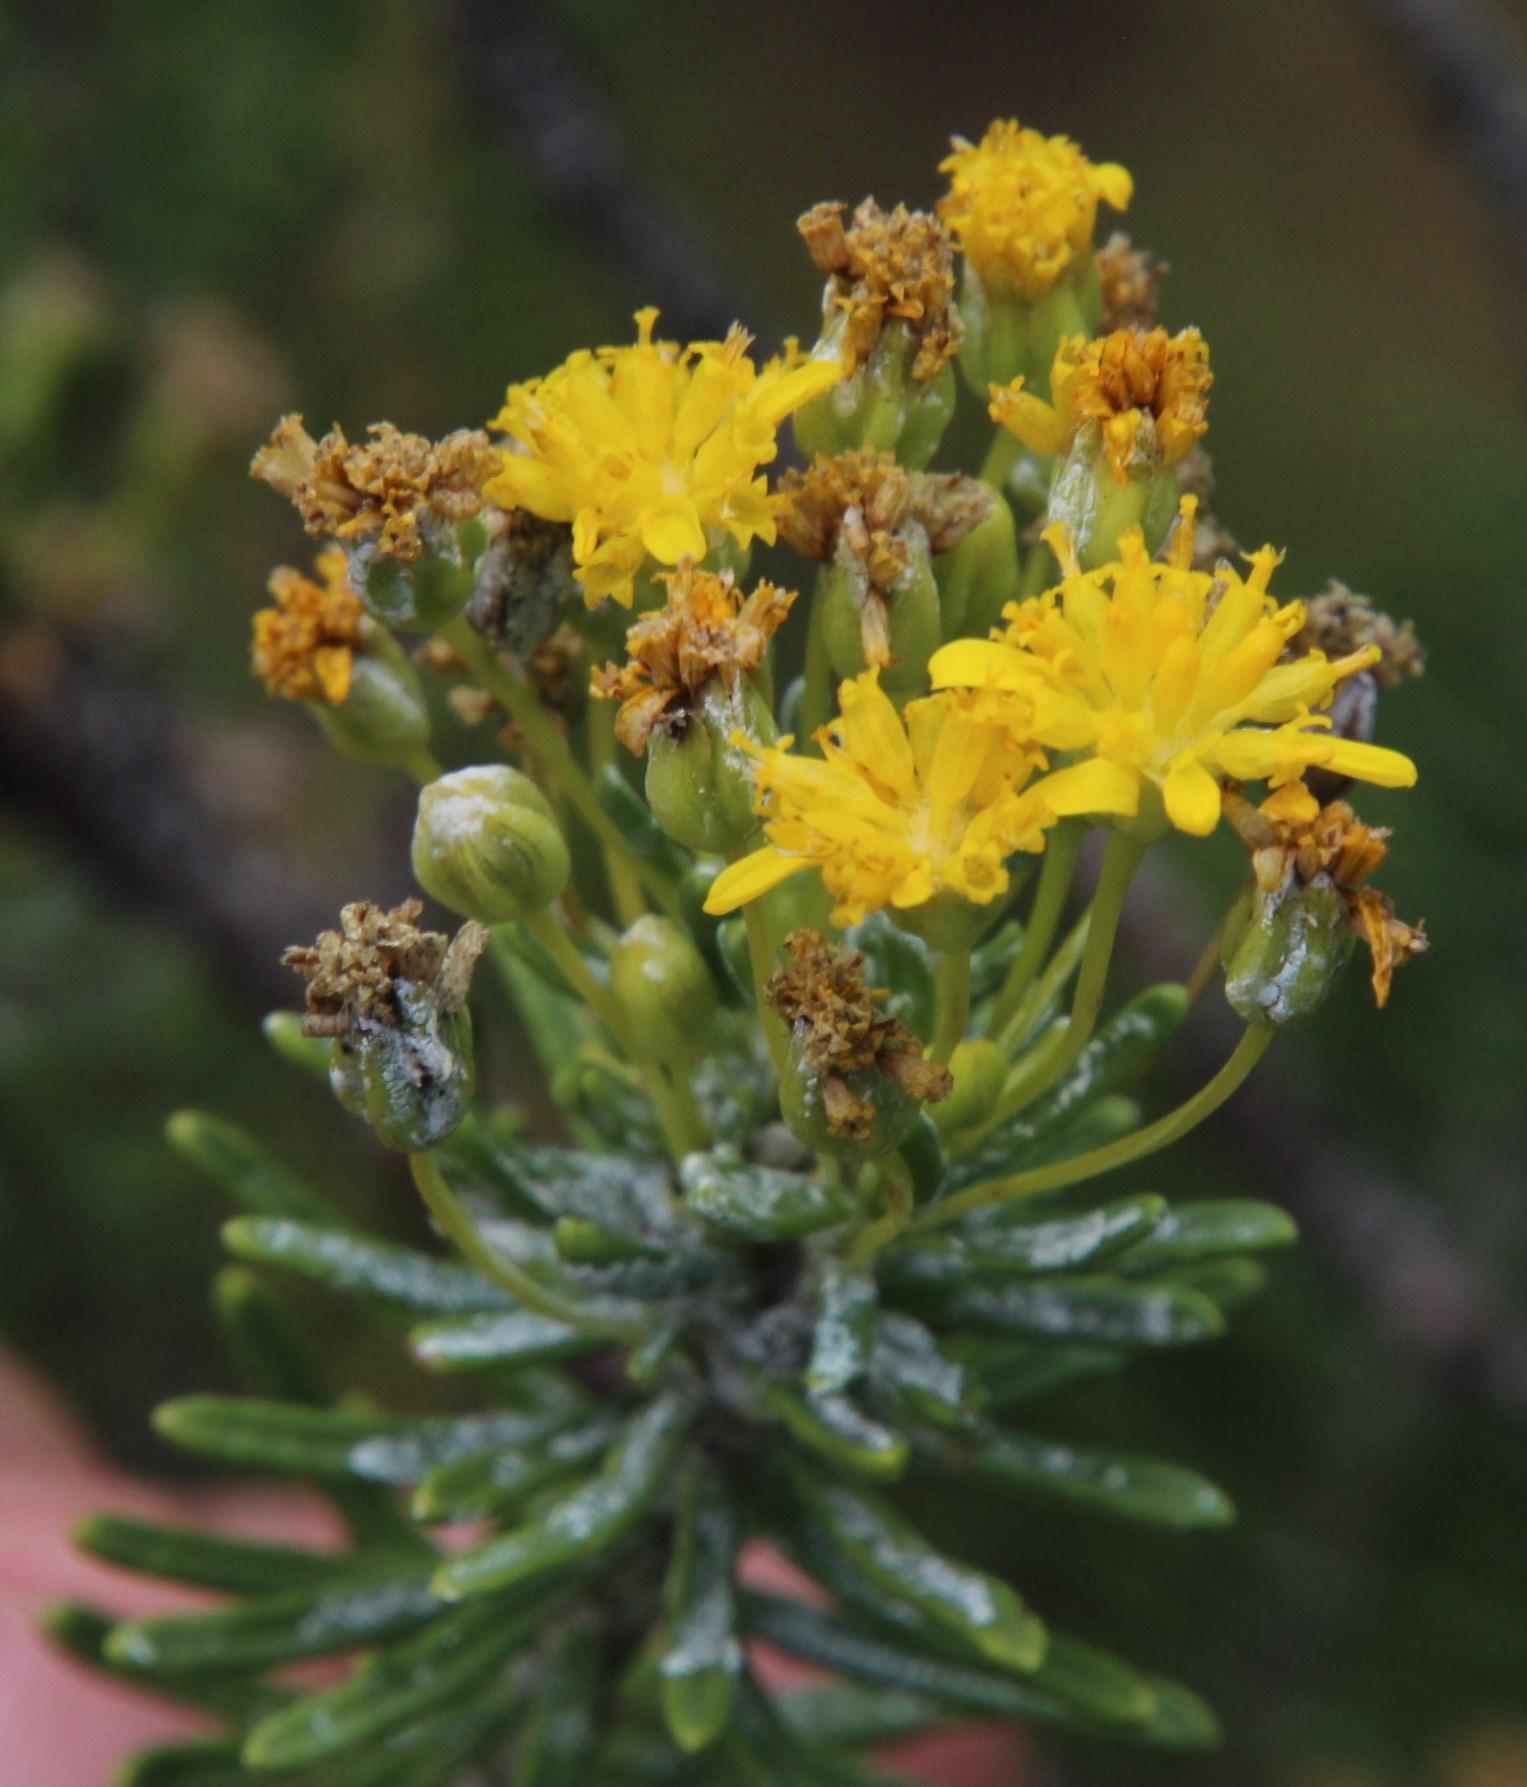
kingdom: Plantae
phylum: Tracheophyta
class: Magnoliopsida
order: Asterales
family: Asteraceae
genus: Euryops
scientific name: Euryops annae
